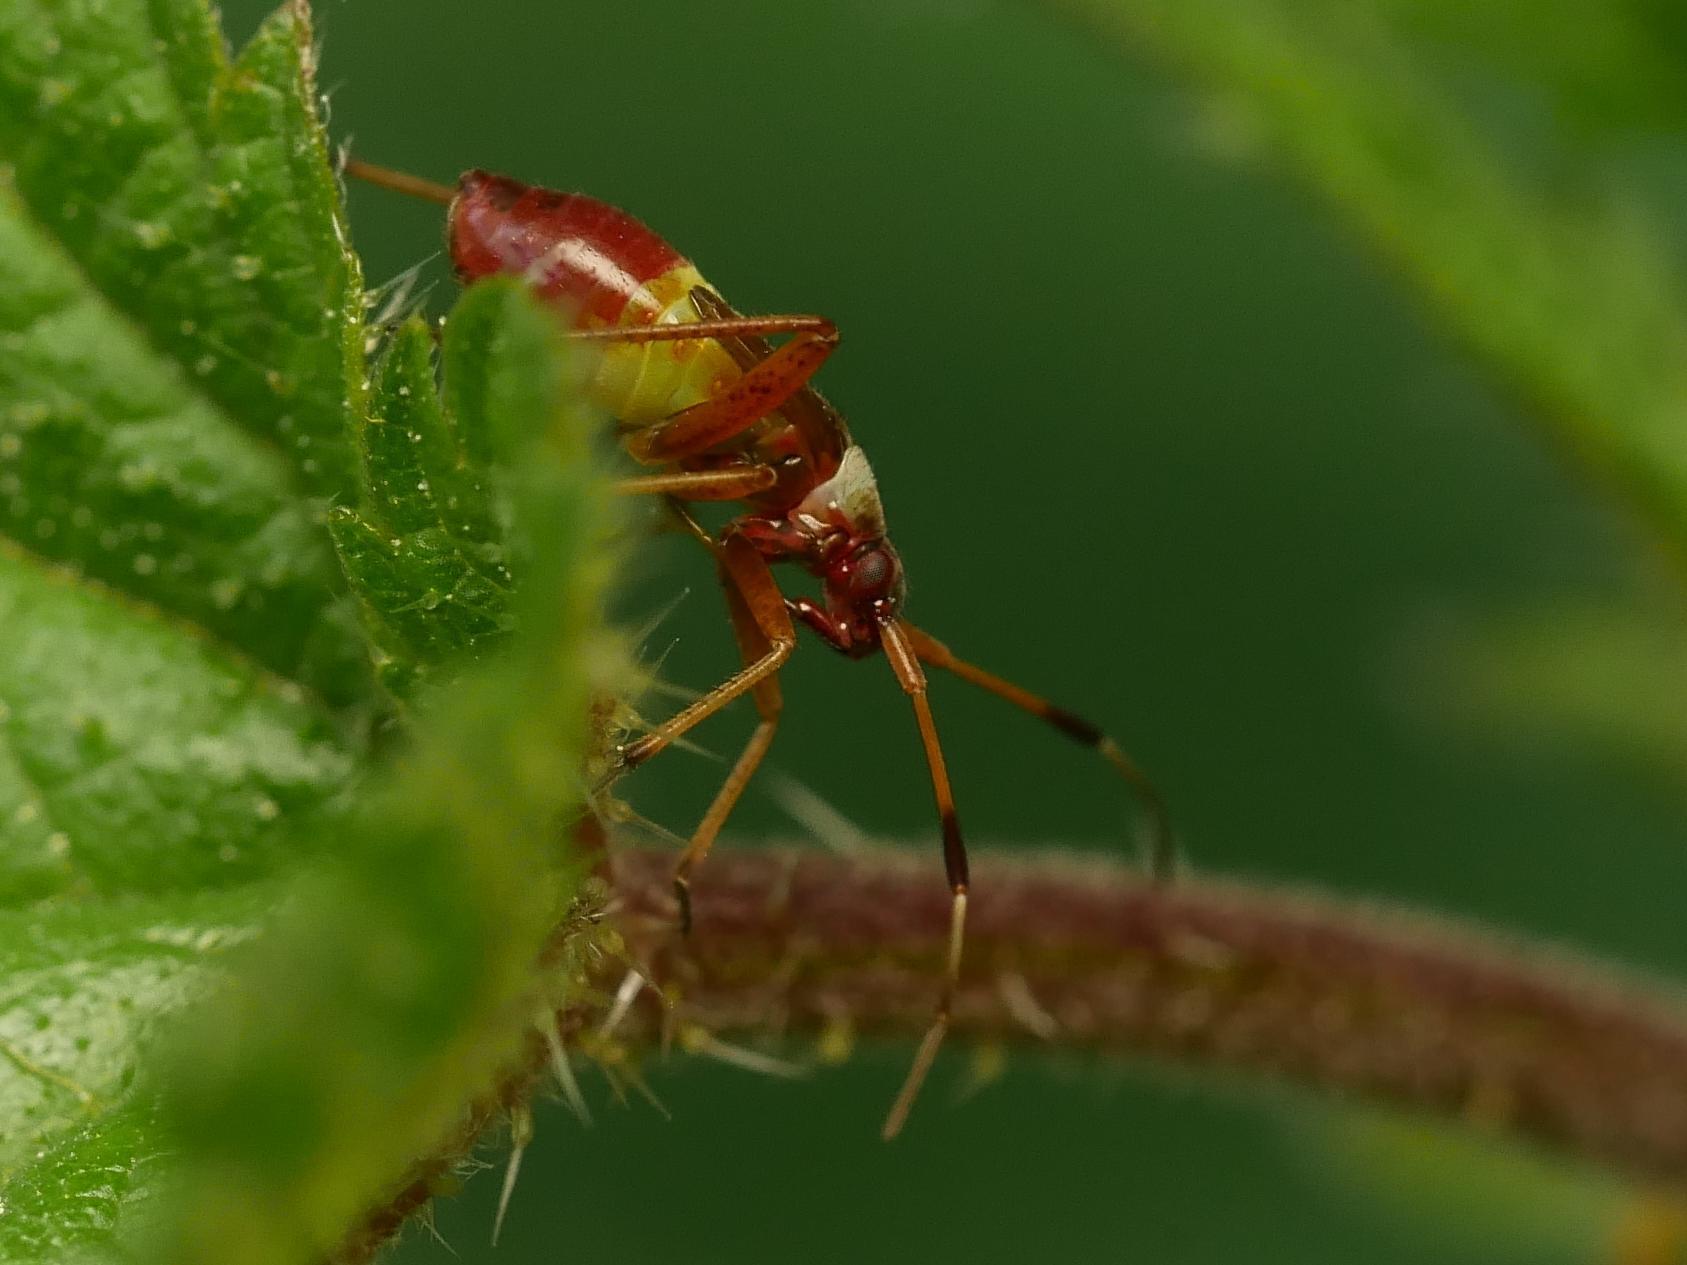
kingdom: Animalia
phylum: Arthropoda
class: Insecta
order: Hemiptera
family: Miridae
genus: Closterotomus
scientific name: Closterotomus biclavatus
